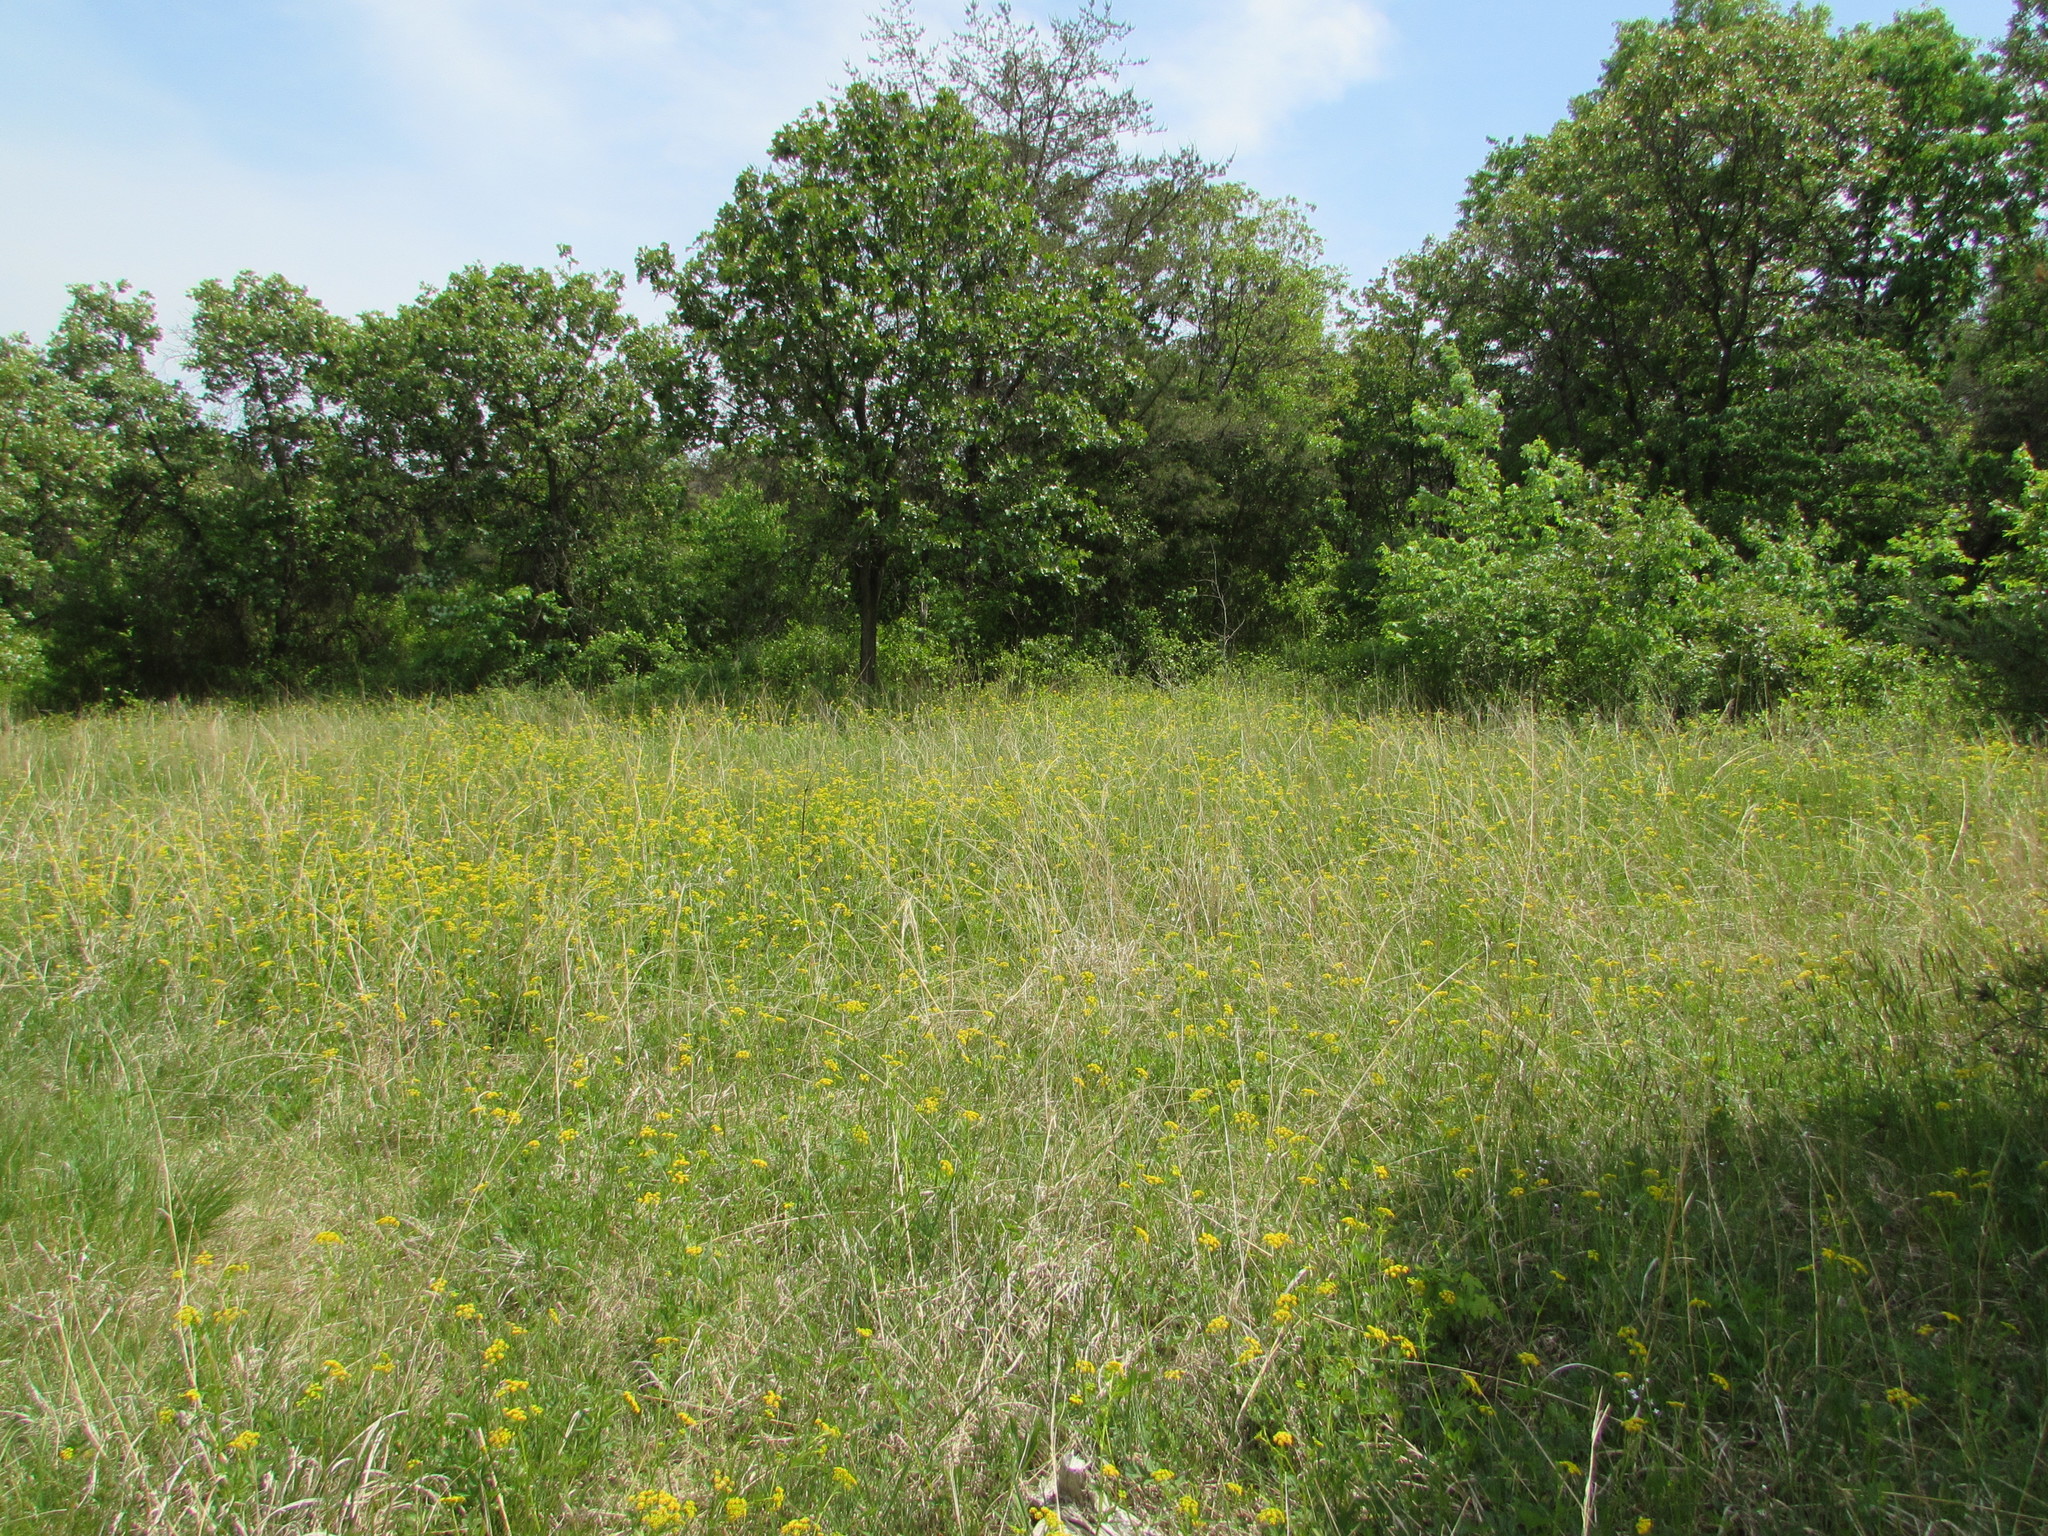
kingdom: Plantae
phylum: Tracheophyta
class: Magnoliopsida
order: Apiales
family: Apiaceae
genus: Zizia
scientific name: Zizia aurea
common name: Golden alexanders
